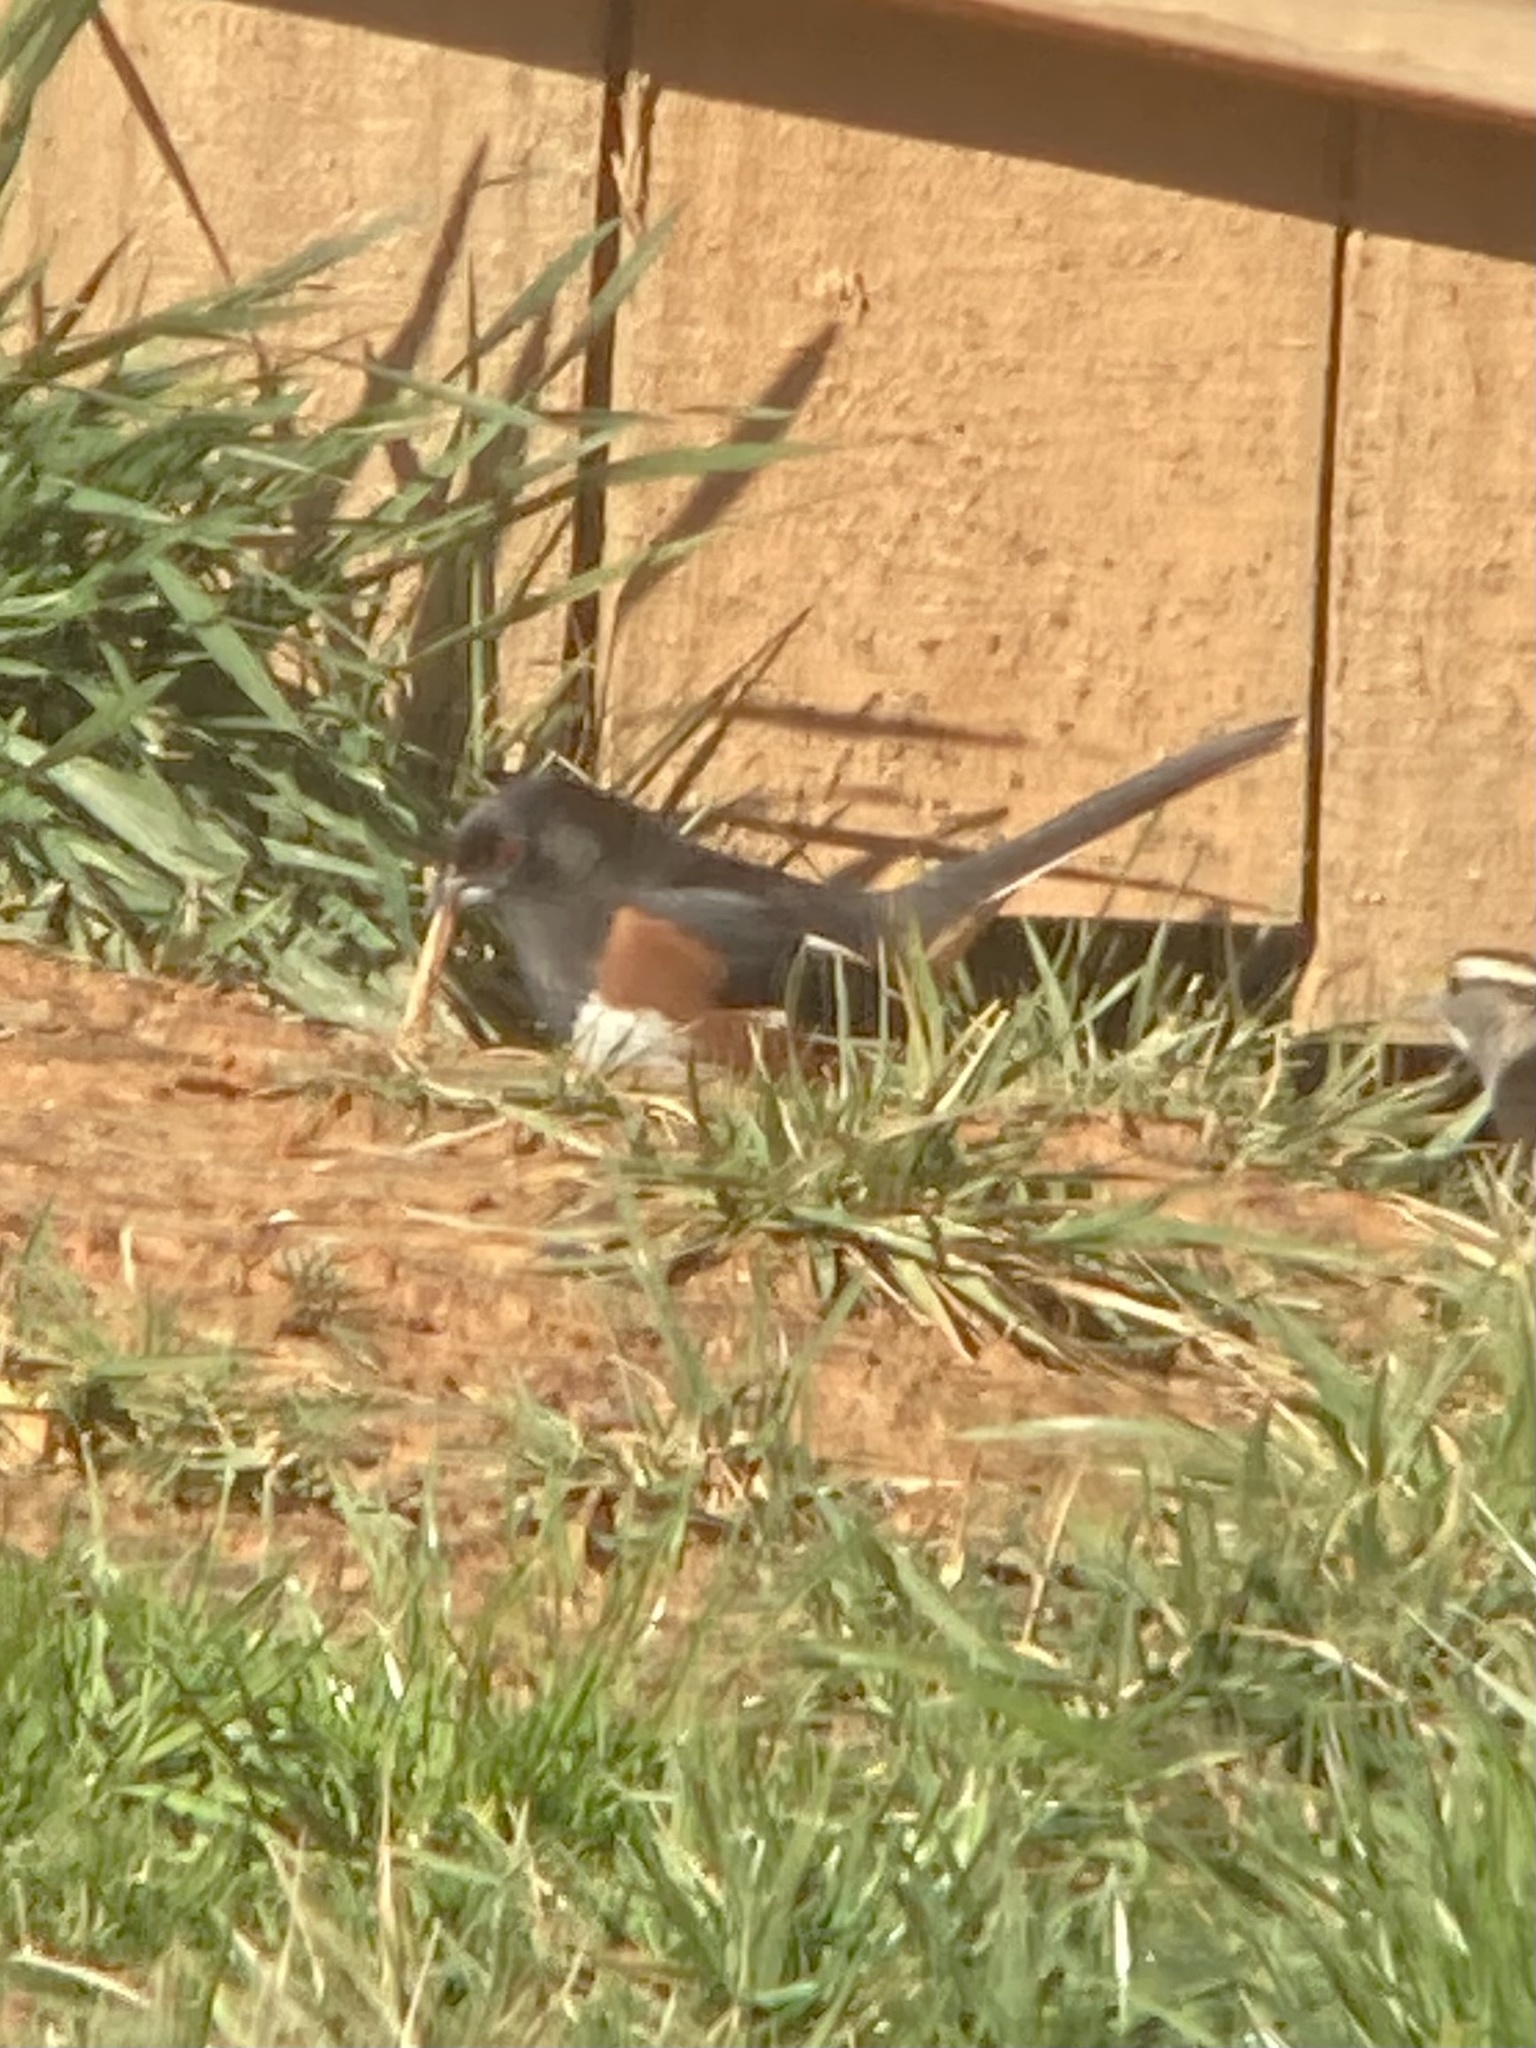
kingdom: Animalia
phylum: Chordata
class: Aves
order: Passeriformes
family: Passerellidae
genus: Pipilo
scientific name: Pipilo erythrophthalmus
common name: Eastern towhee
